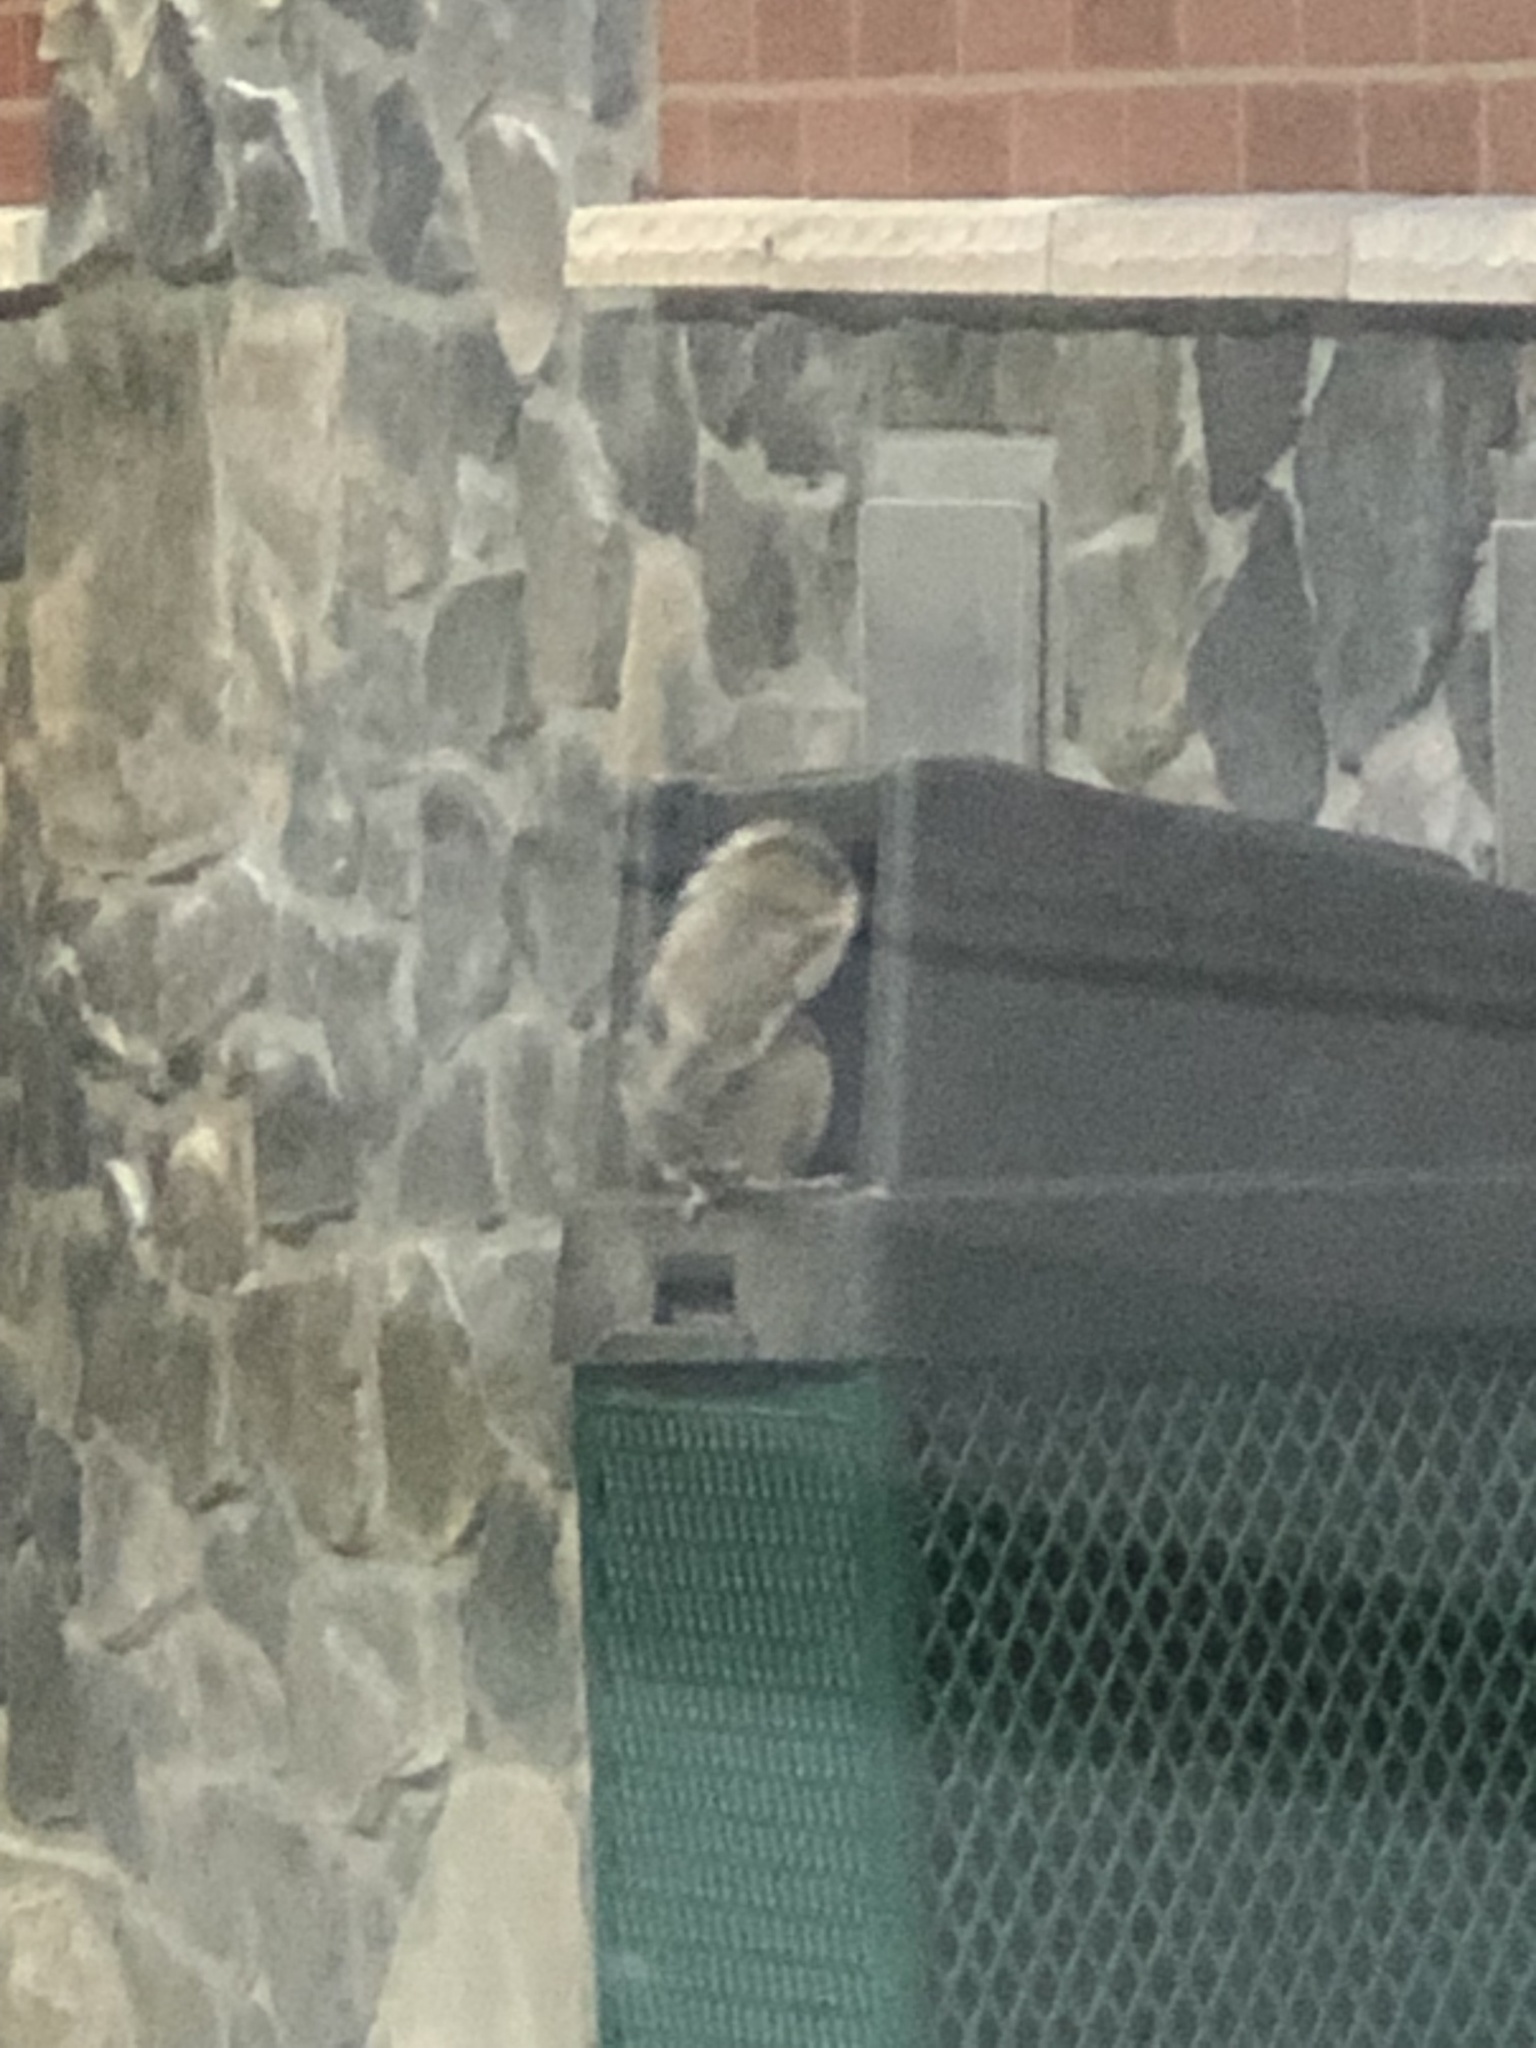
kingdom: Animalia
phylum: Chordata
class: Mammalia
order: Rodentia
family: Sciuridae
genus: Sciurus
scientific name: Sciurus carolinensis
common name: Eastern gray squirrel
